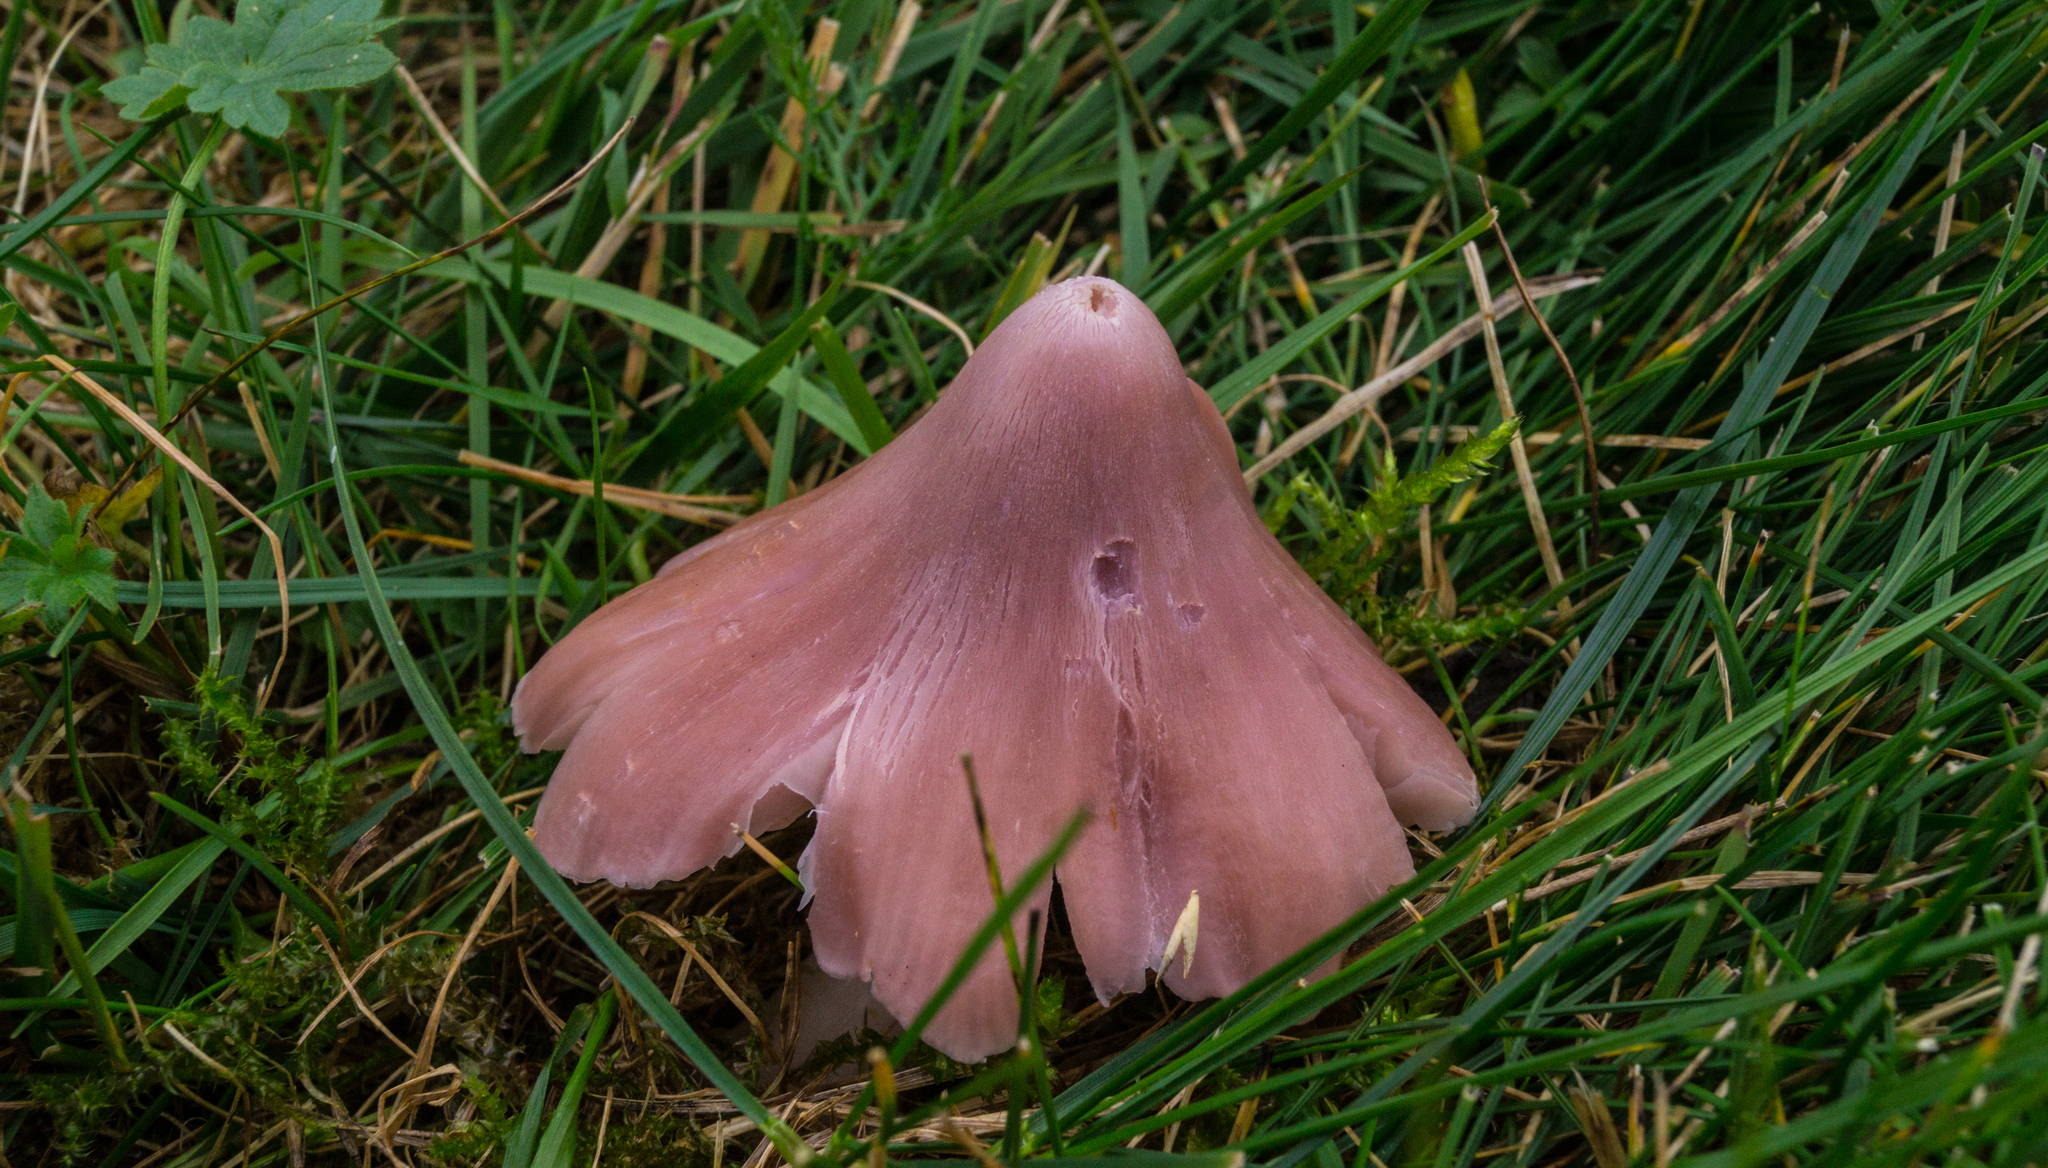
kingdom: Fungi
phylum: Basidiomycota
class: Agaricomycetes
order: Agaricales
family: Hygrophoraceae
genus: Porpolomopsis
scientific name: Porpolomopsis calyptriformis
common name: Pink waxcap
